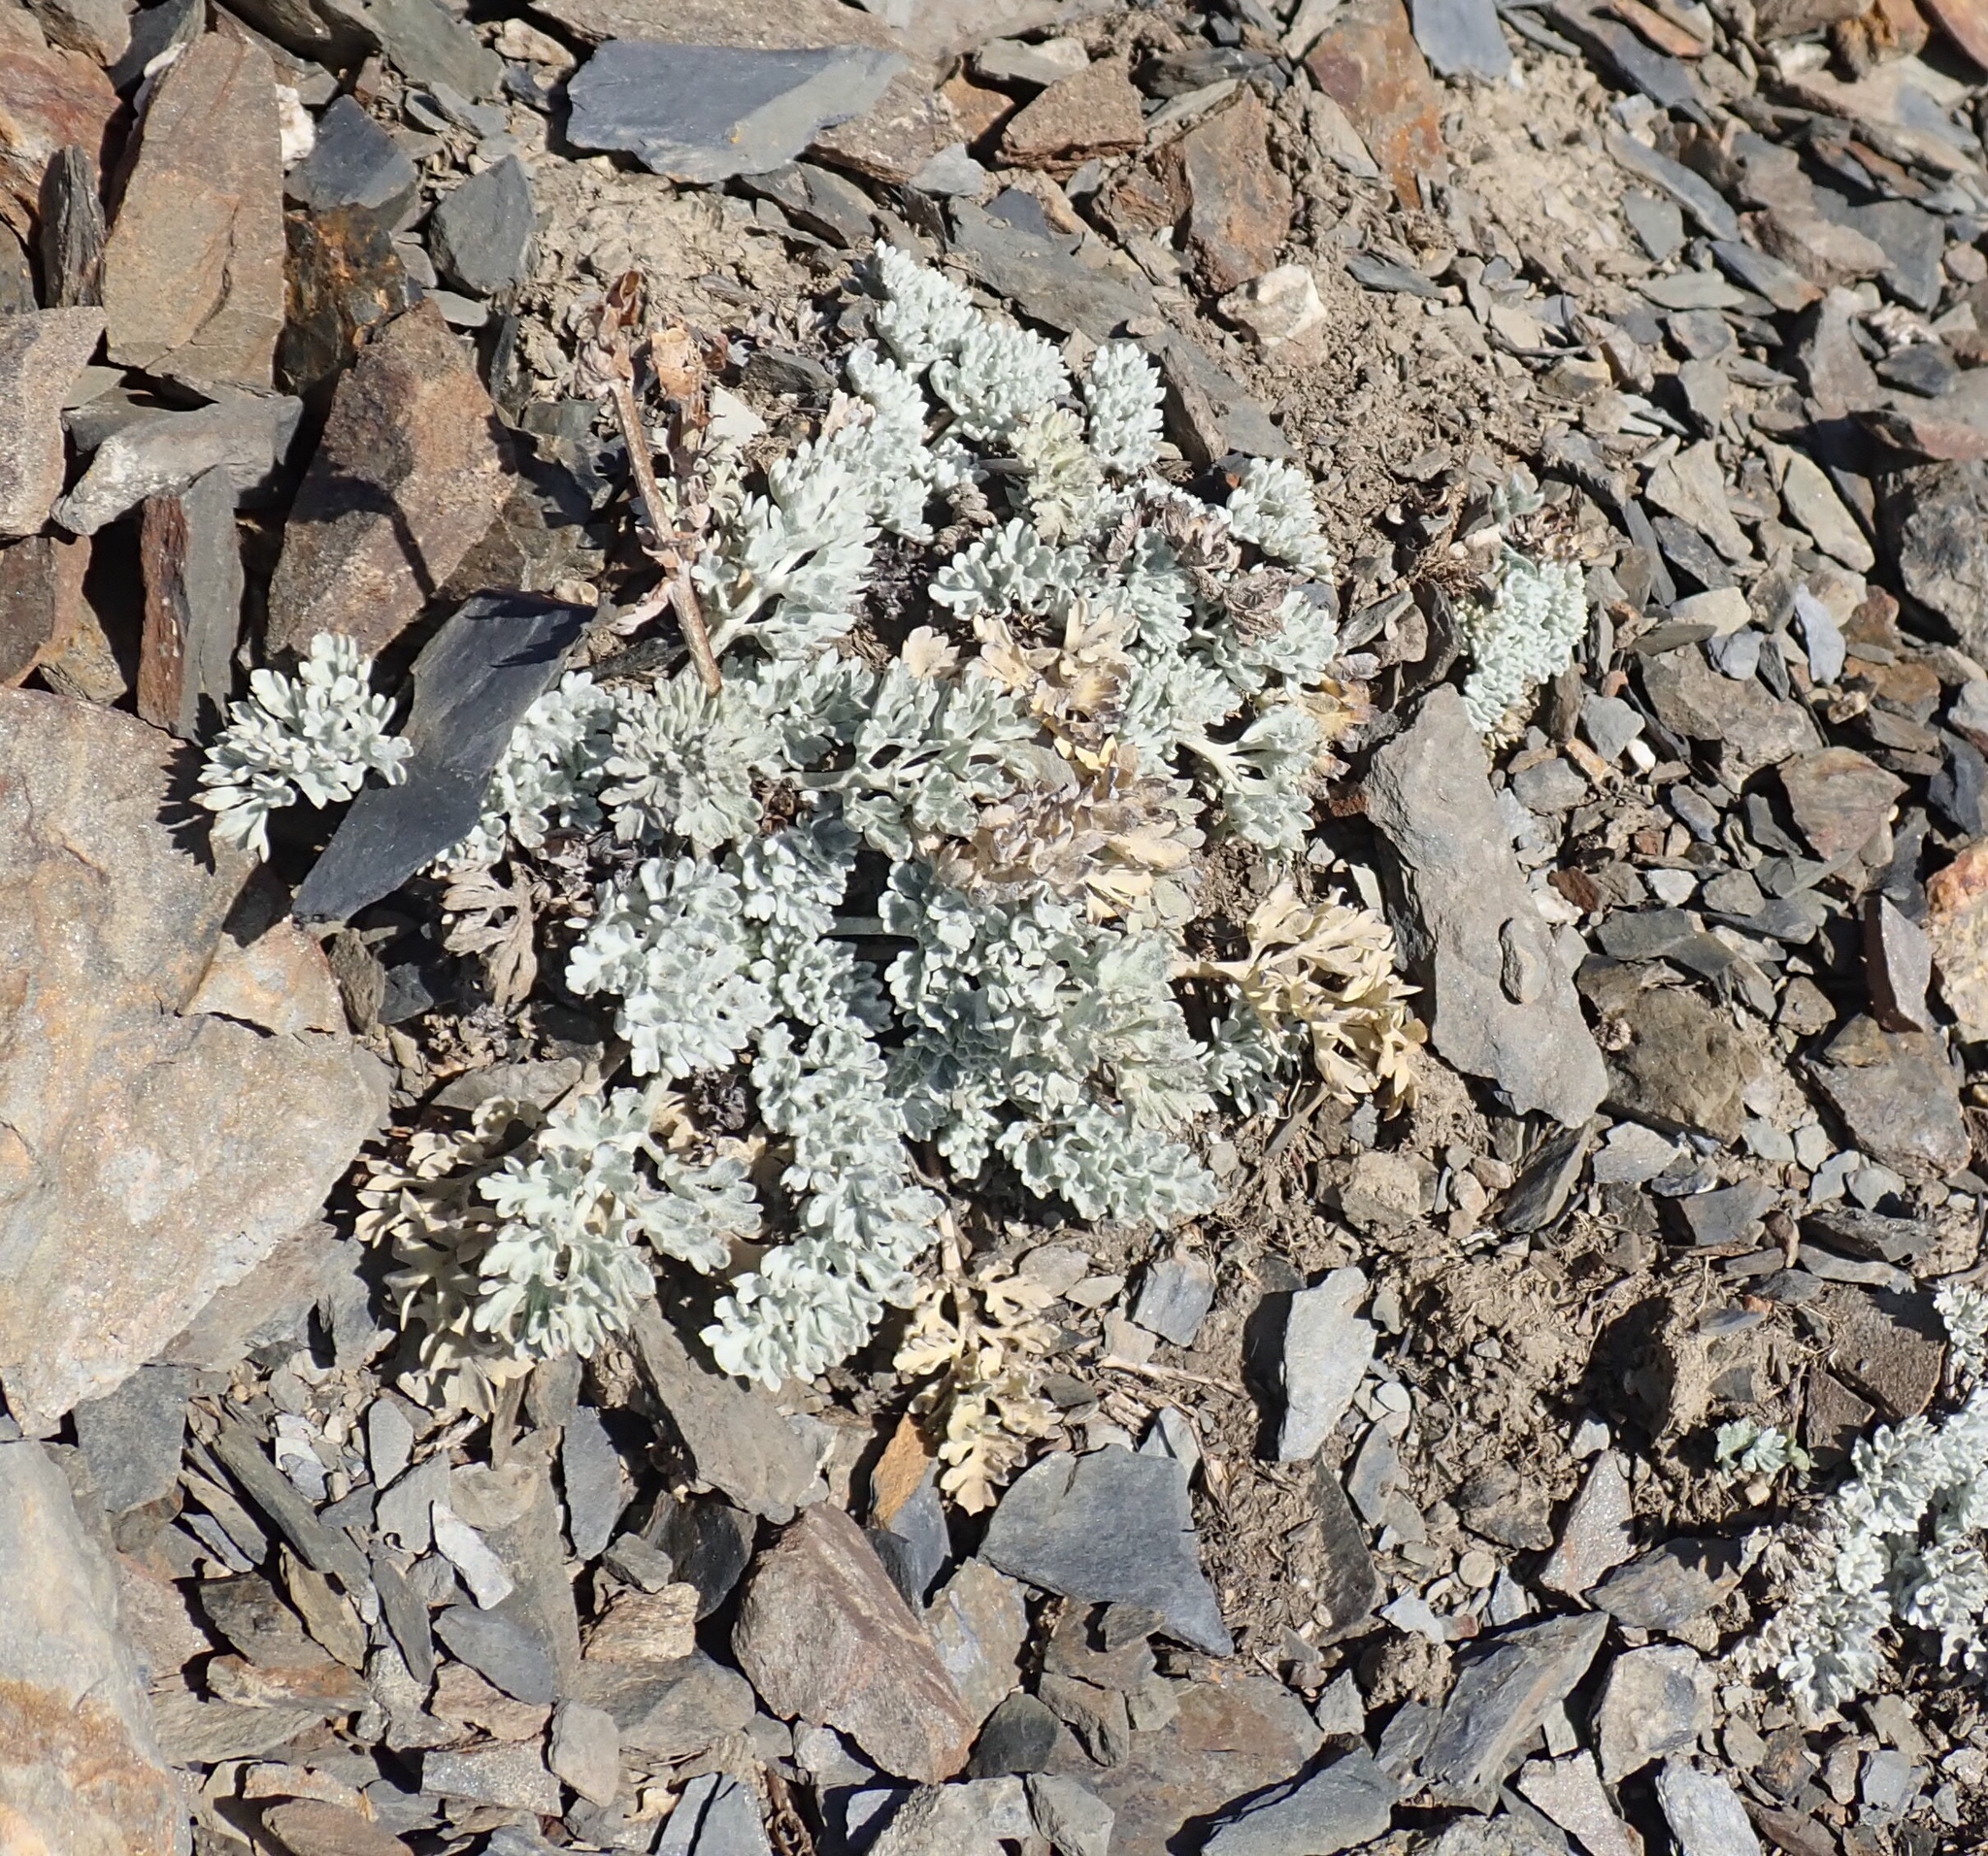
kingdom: Plantae
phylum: Tracheophyta
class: Magnoliopsida
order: Lamiales
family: Plantaginaceae
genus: Synthyris
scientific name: Synthyris lanuginosa
